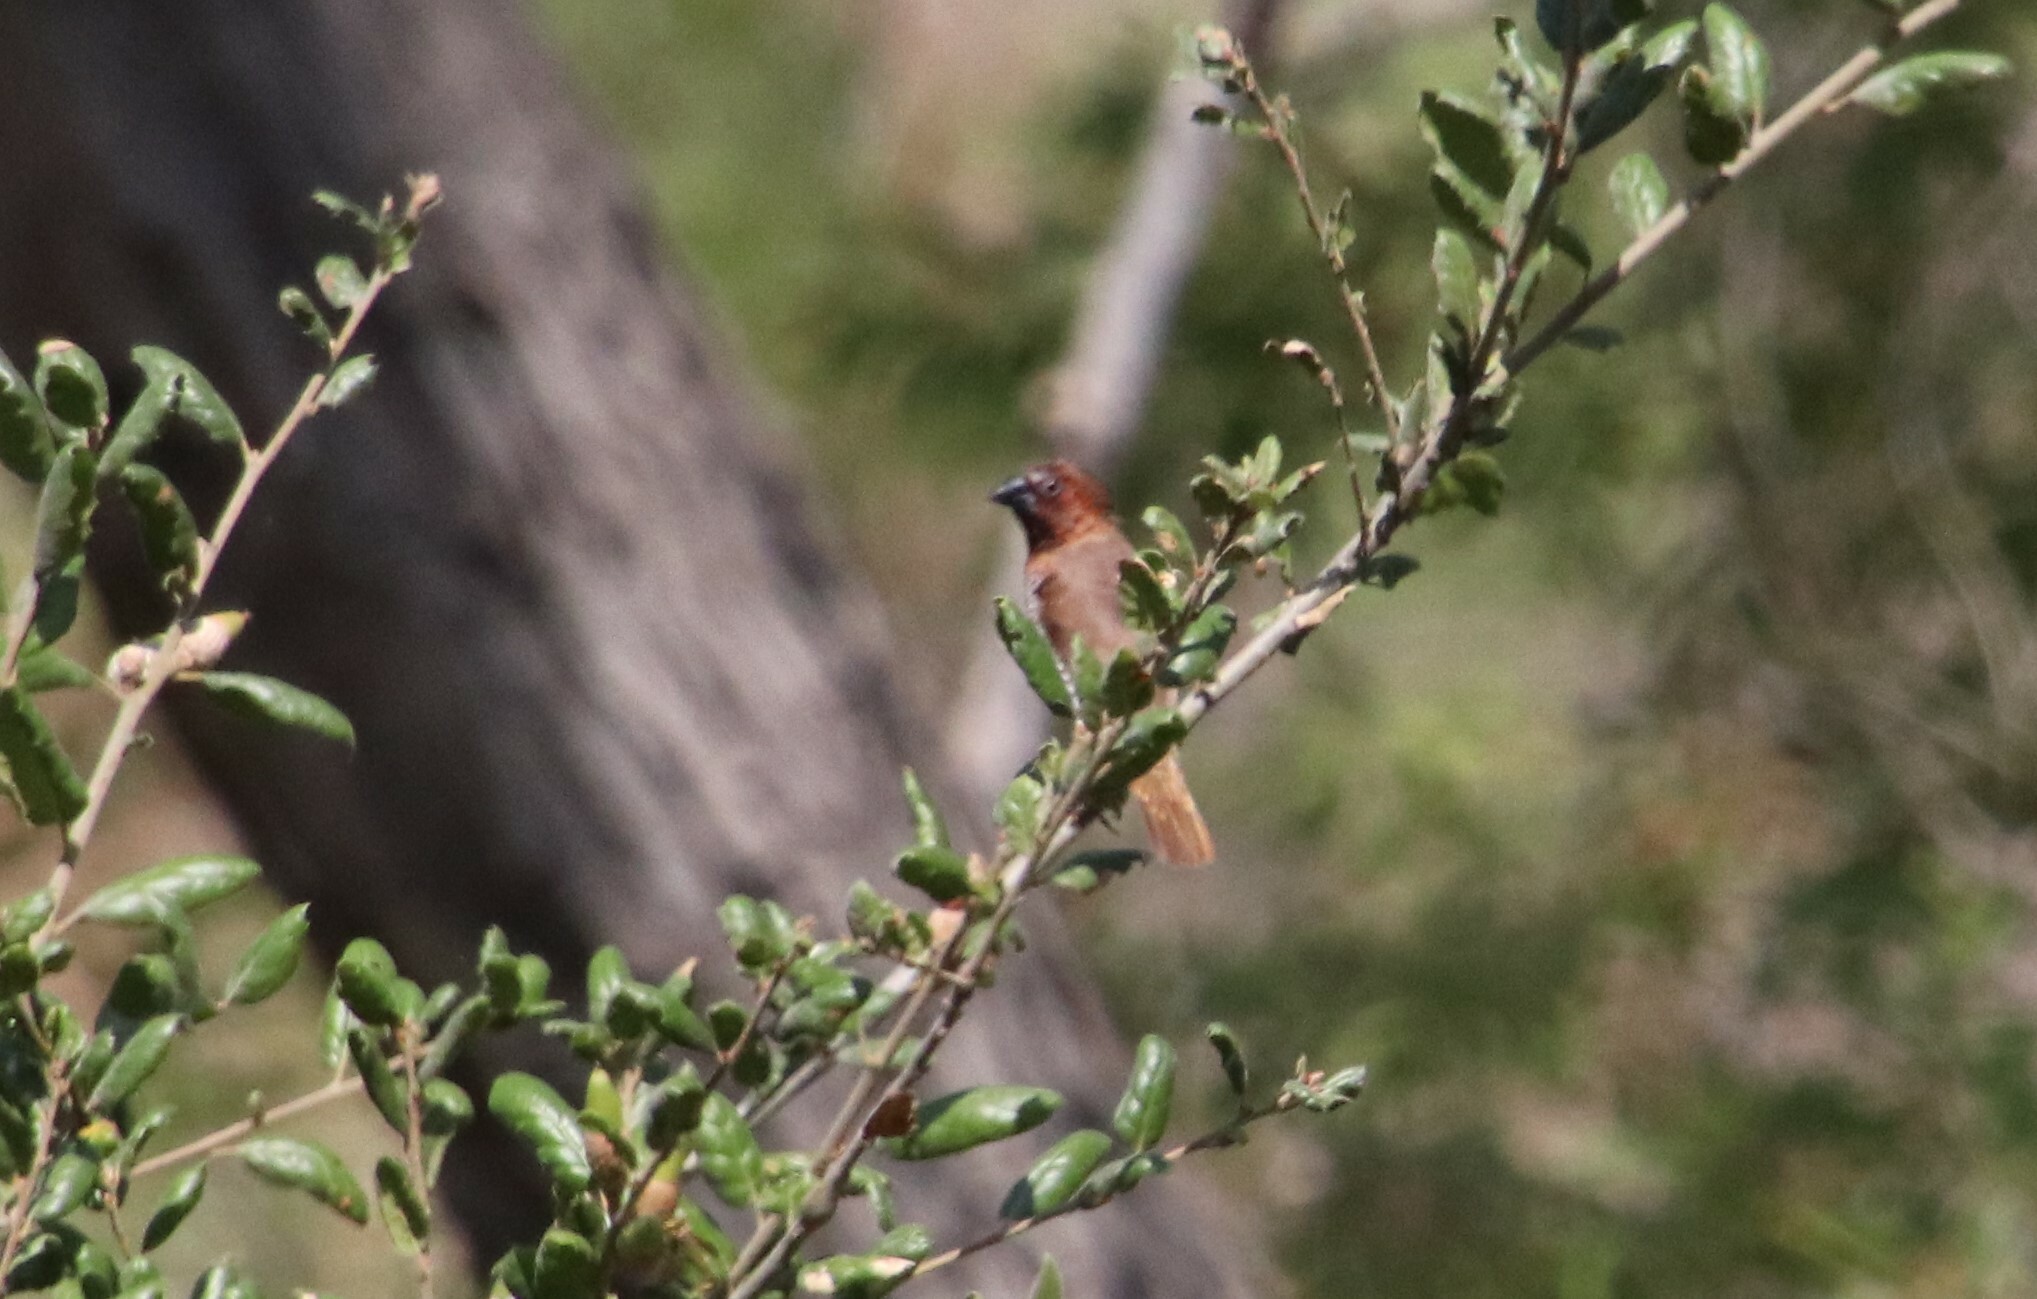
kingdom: Animalia
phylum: Chordata
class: Aves
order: Passeriformes
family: Estrildidae
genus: Lonchura
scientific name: Lonchura punctulata
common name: Scaly-breasted munia
